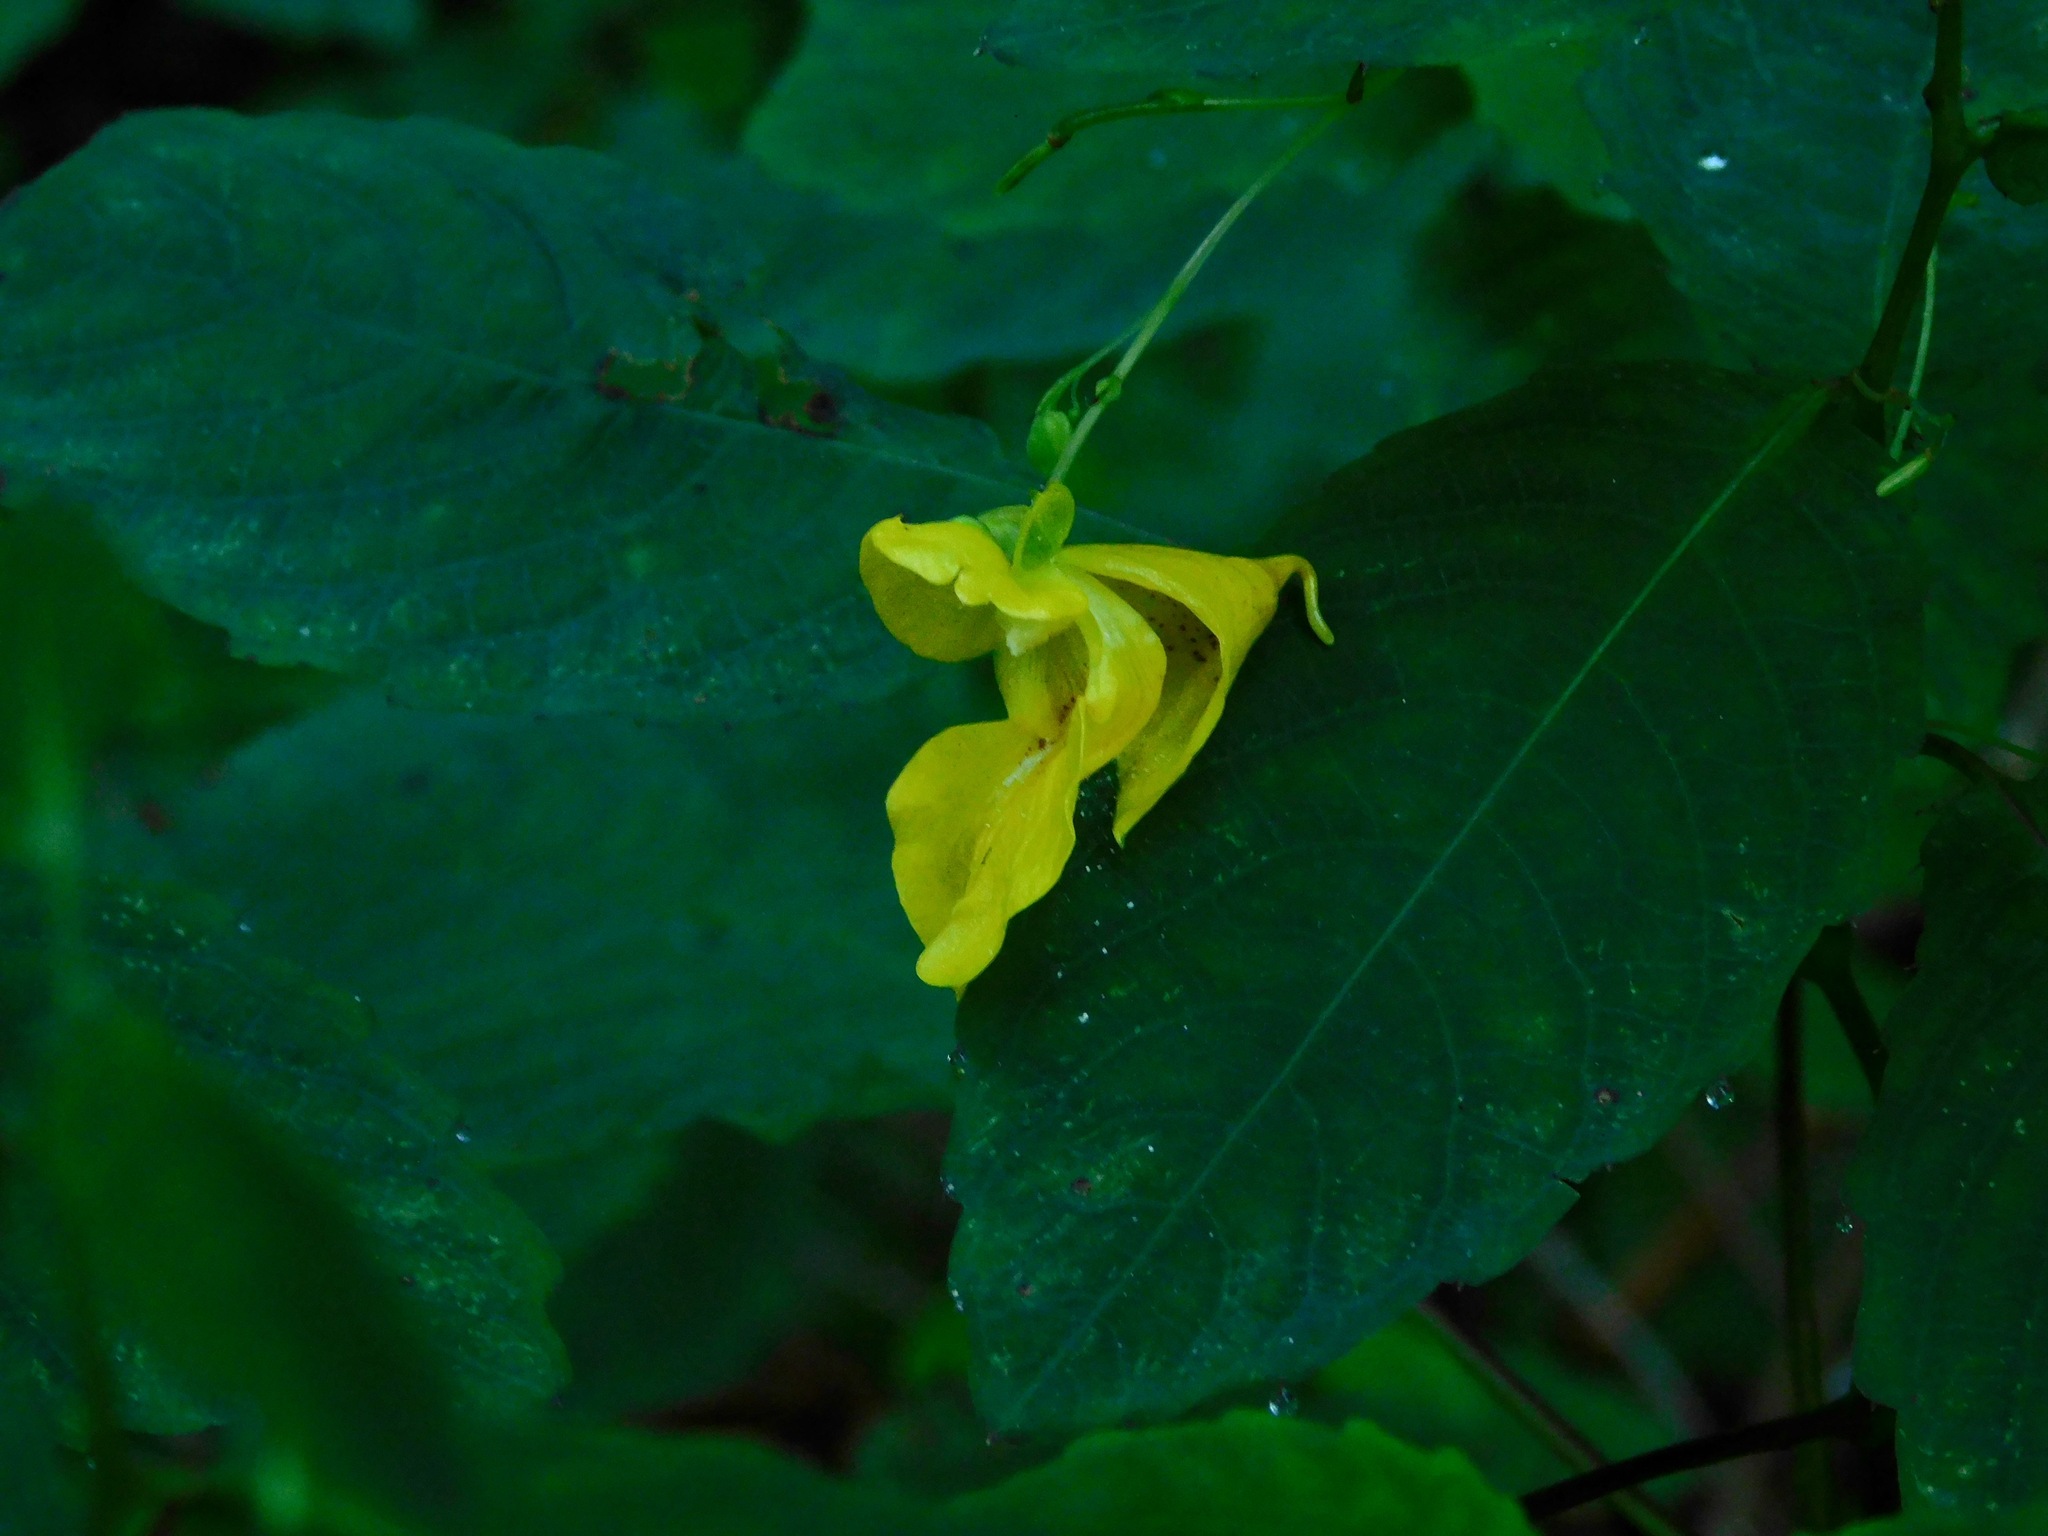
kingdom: Plantae
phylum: Tracheophyta
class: Magnoliopsida
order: Ericales
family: Balsaminaceae
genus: Impatiens
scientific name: Impatiens pallida
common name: Pale snapweed
